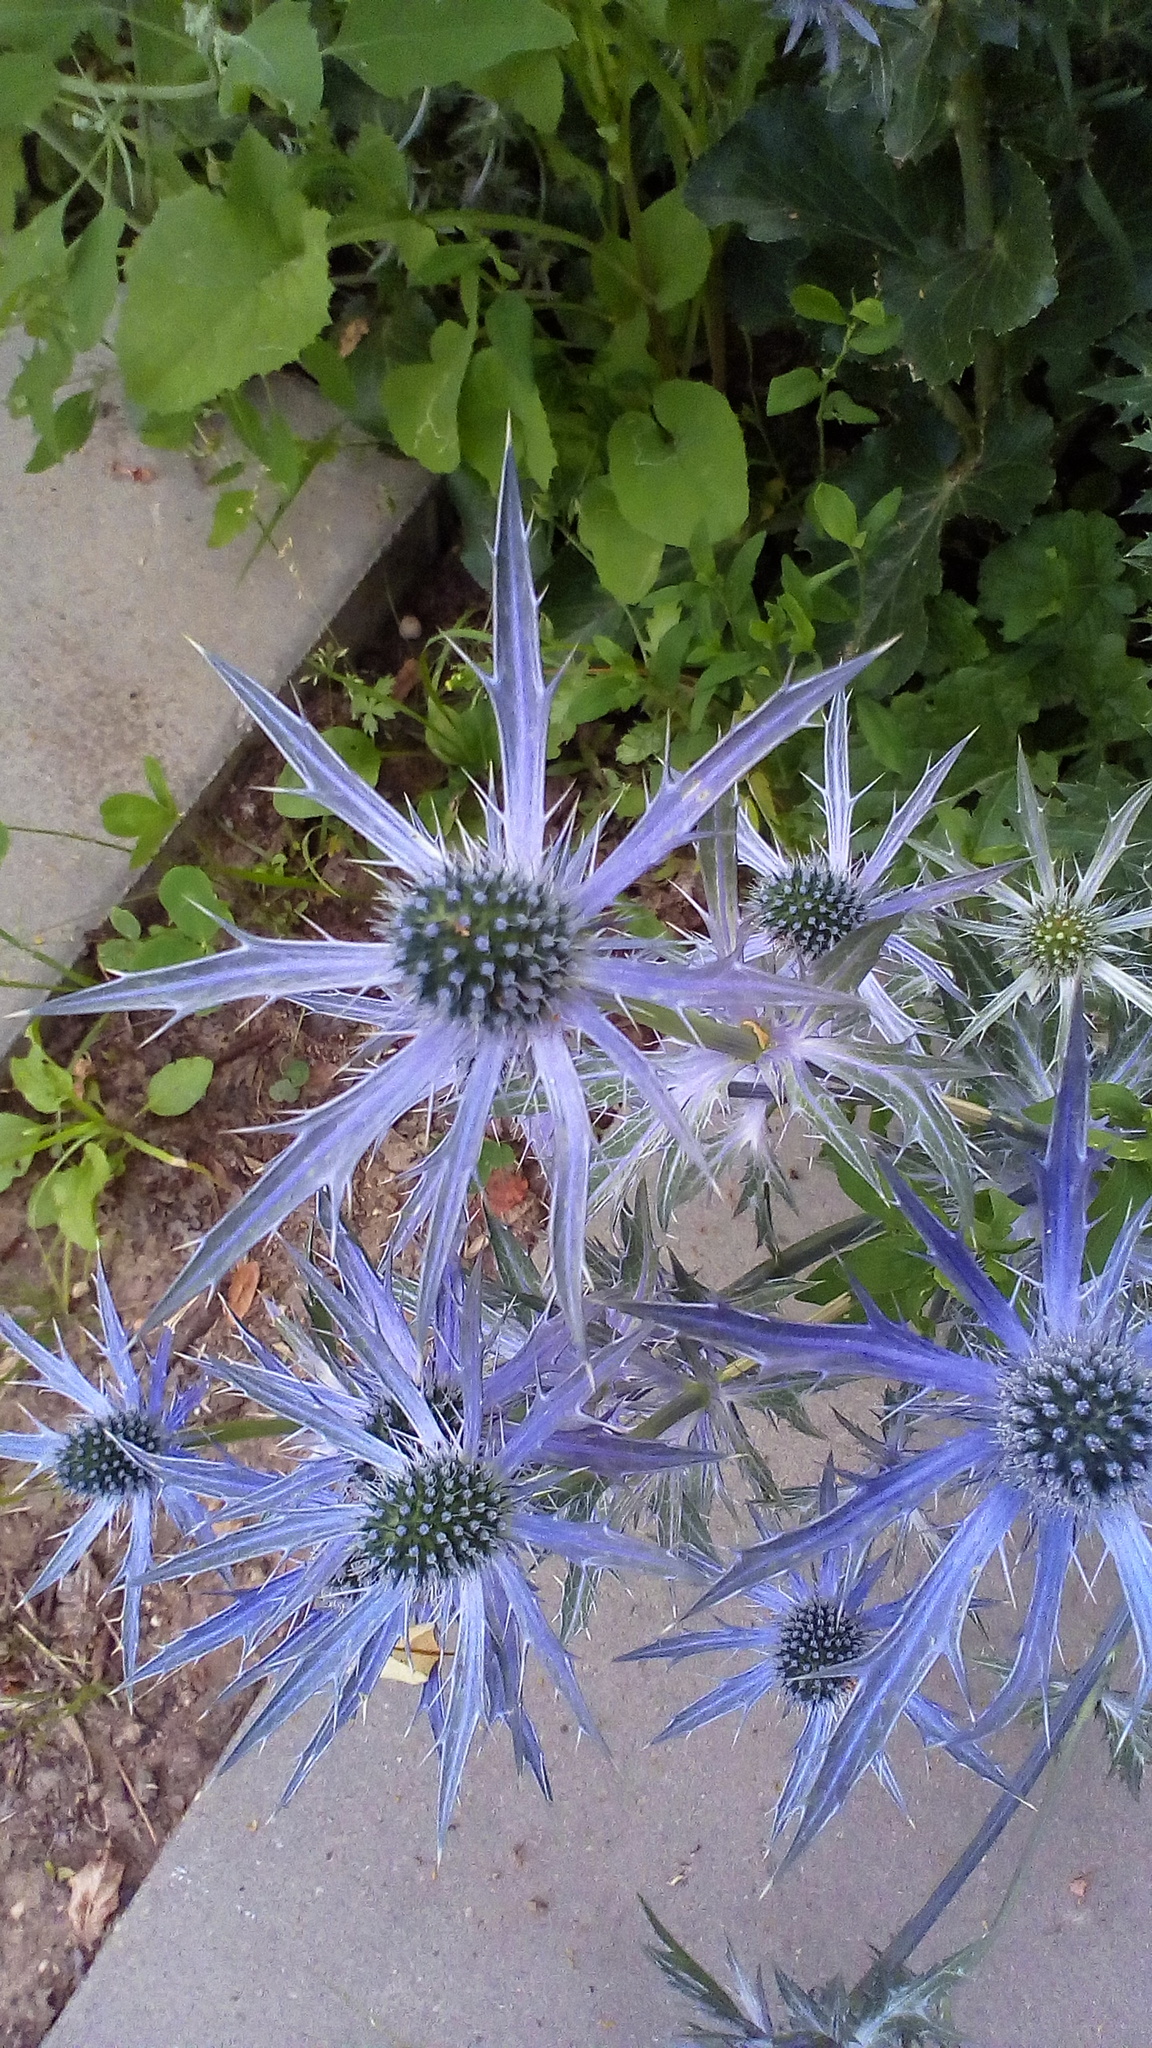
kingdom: Plantae
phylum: Tracheophyta
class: Magnoliopsida
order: Apiales
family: Apiaceae
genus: Eryngium
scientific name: Eryngium planum
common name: Blue eryngo
